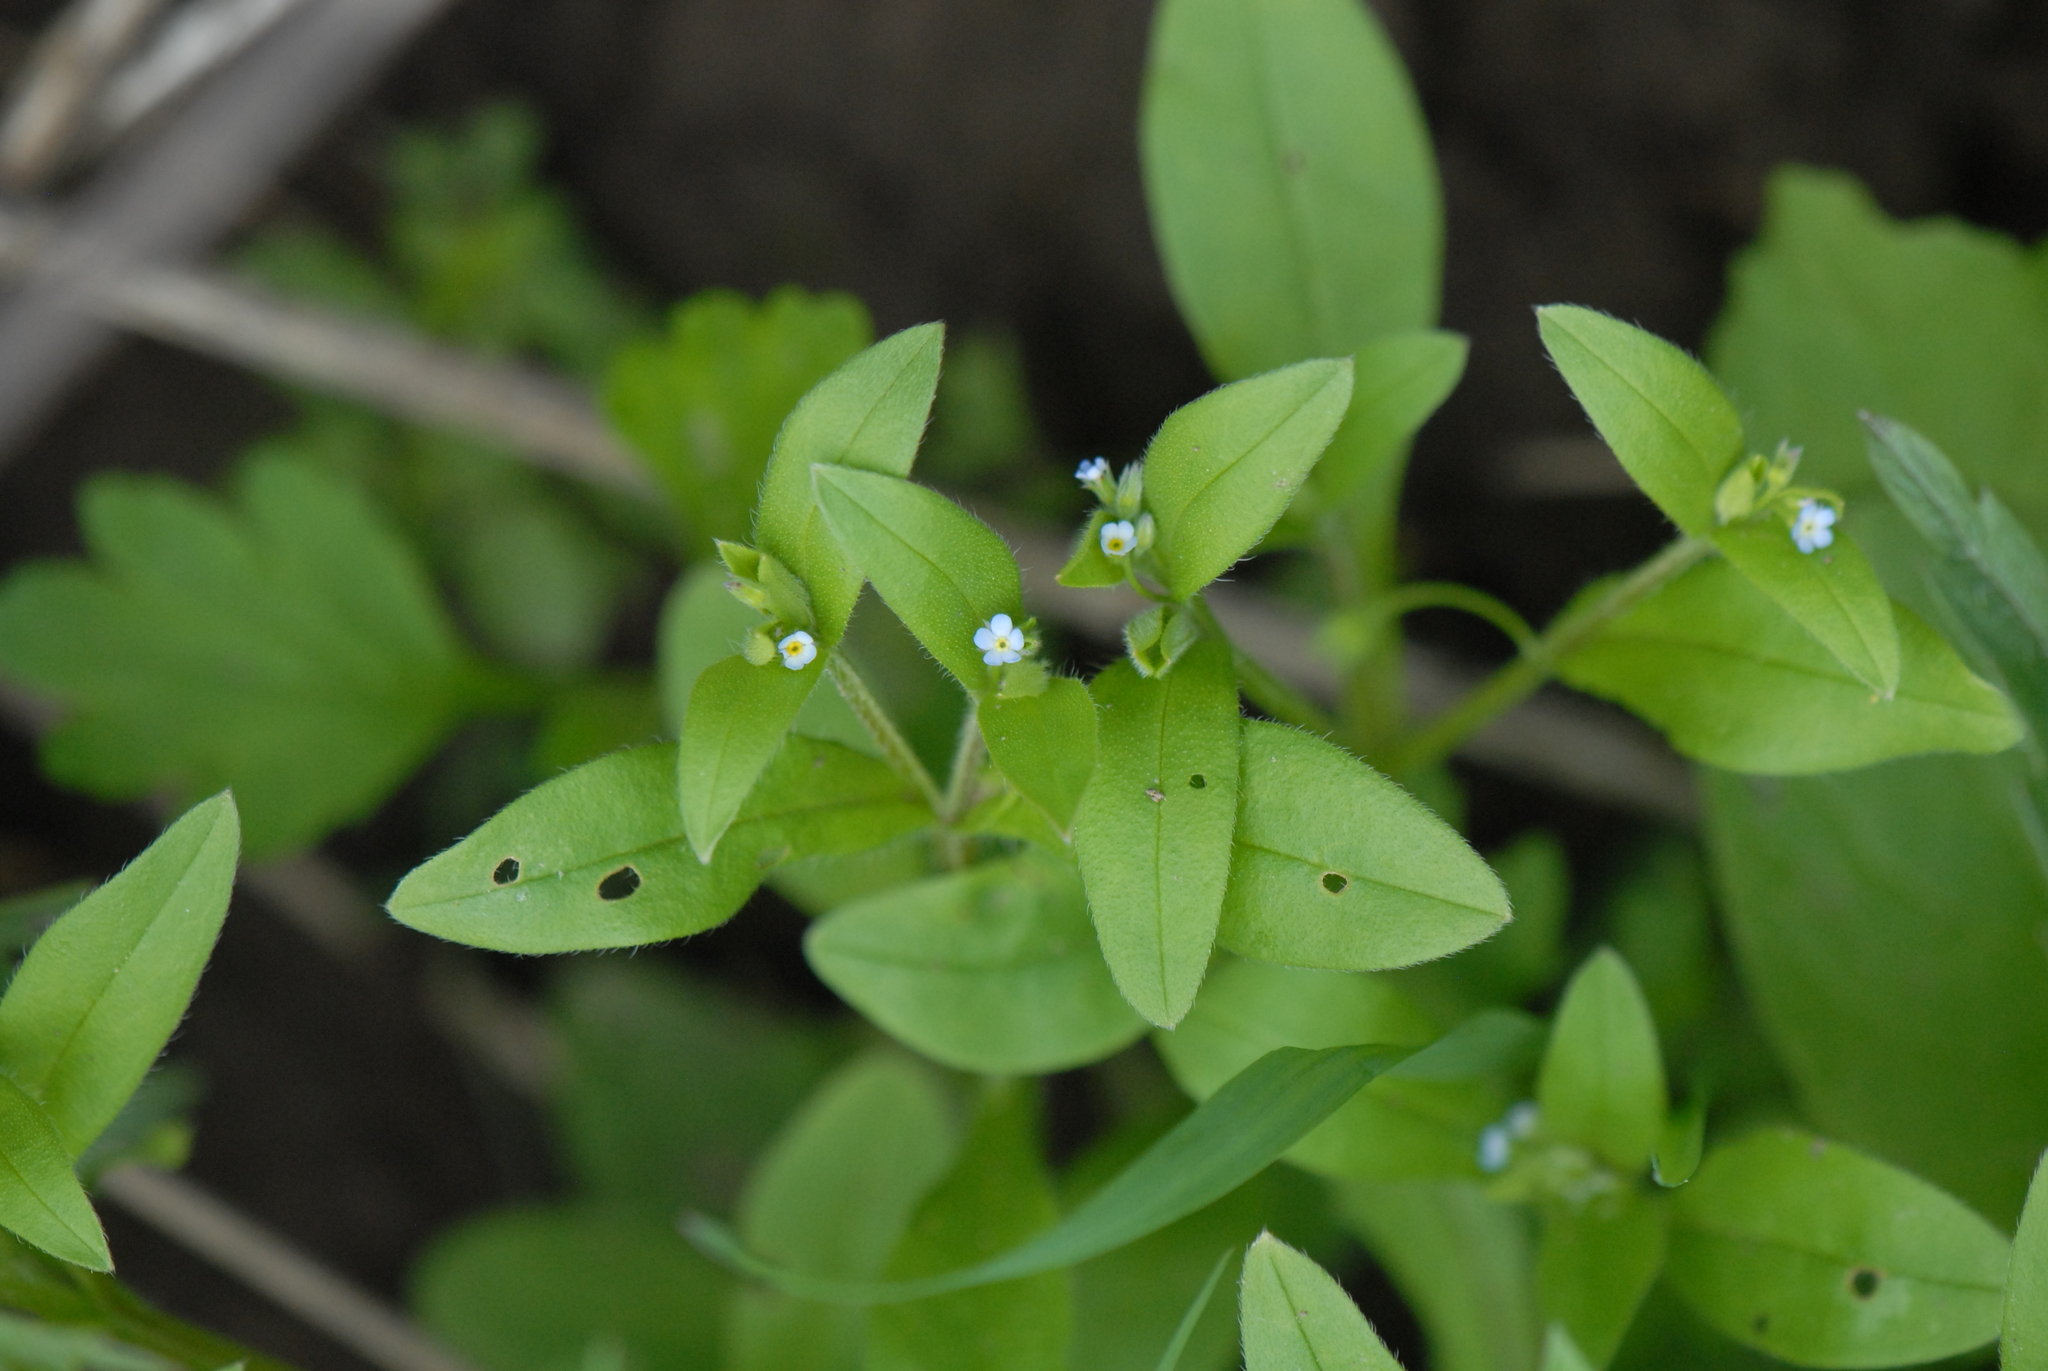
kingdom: Plantae
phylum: Tracheophyta
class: Magnoliopsida
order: Boraginales
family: Boraginaceae
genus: Myosotis
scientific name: Myosotis sparsiflora
